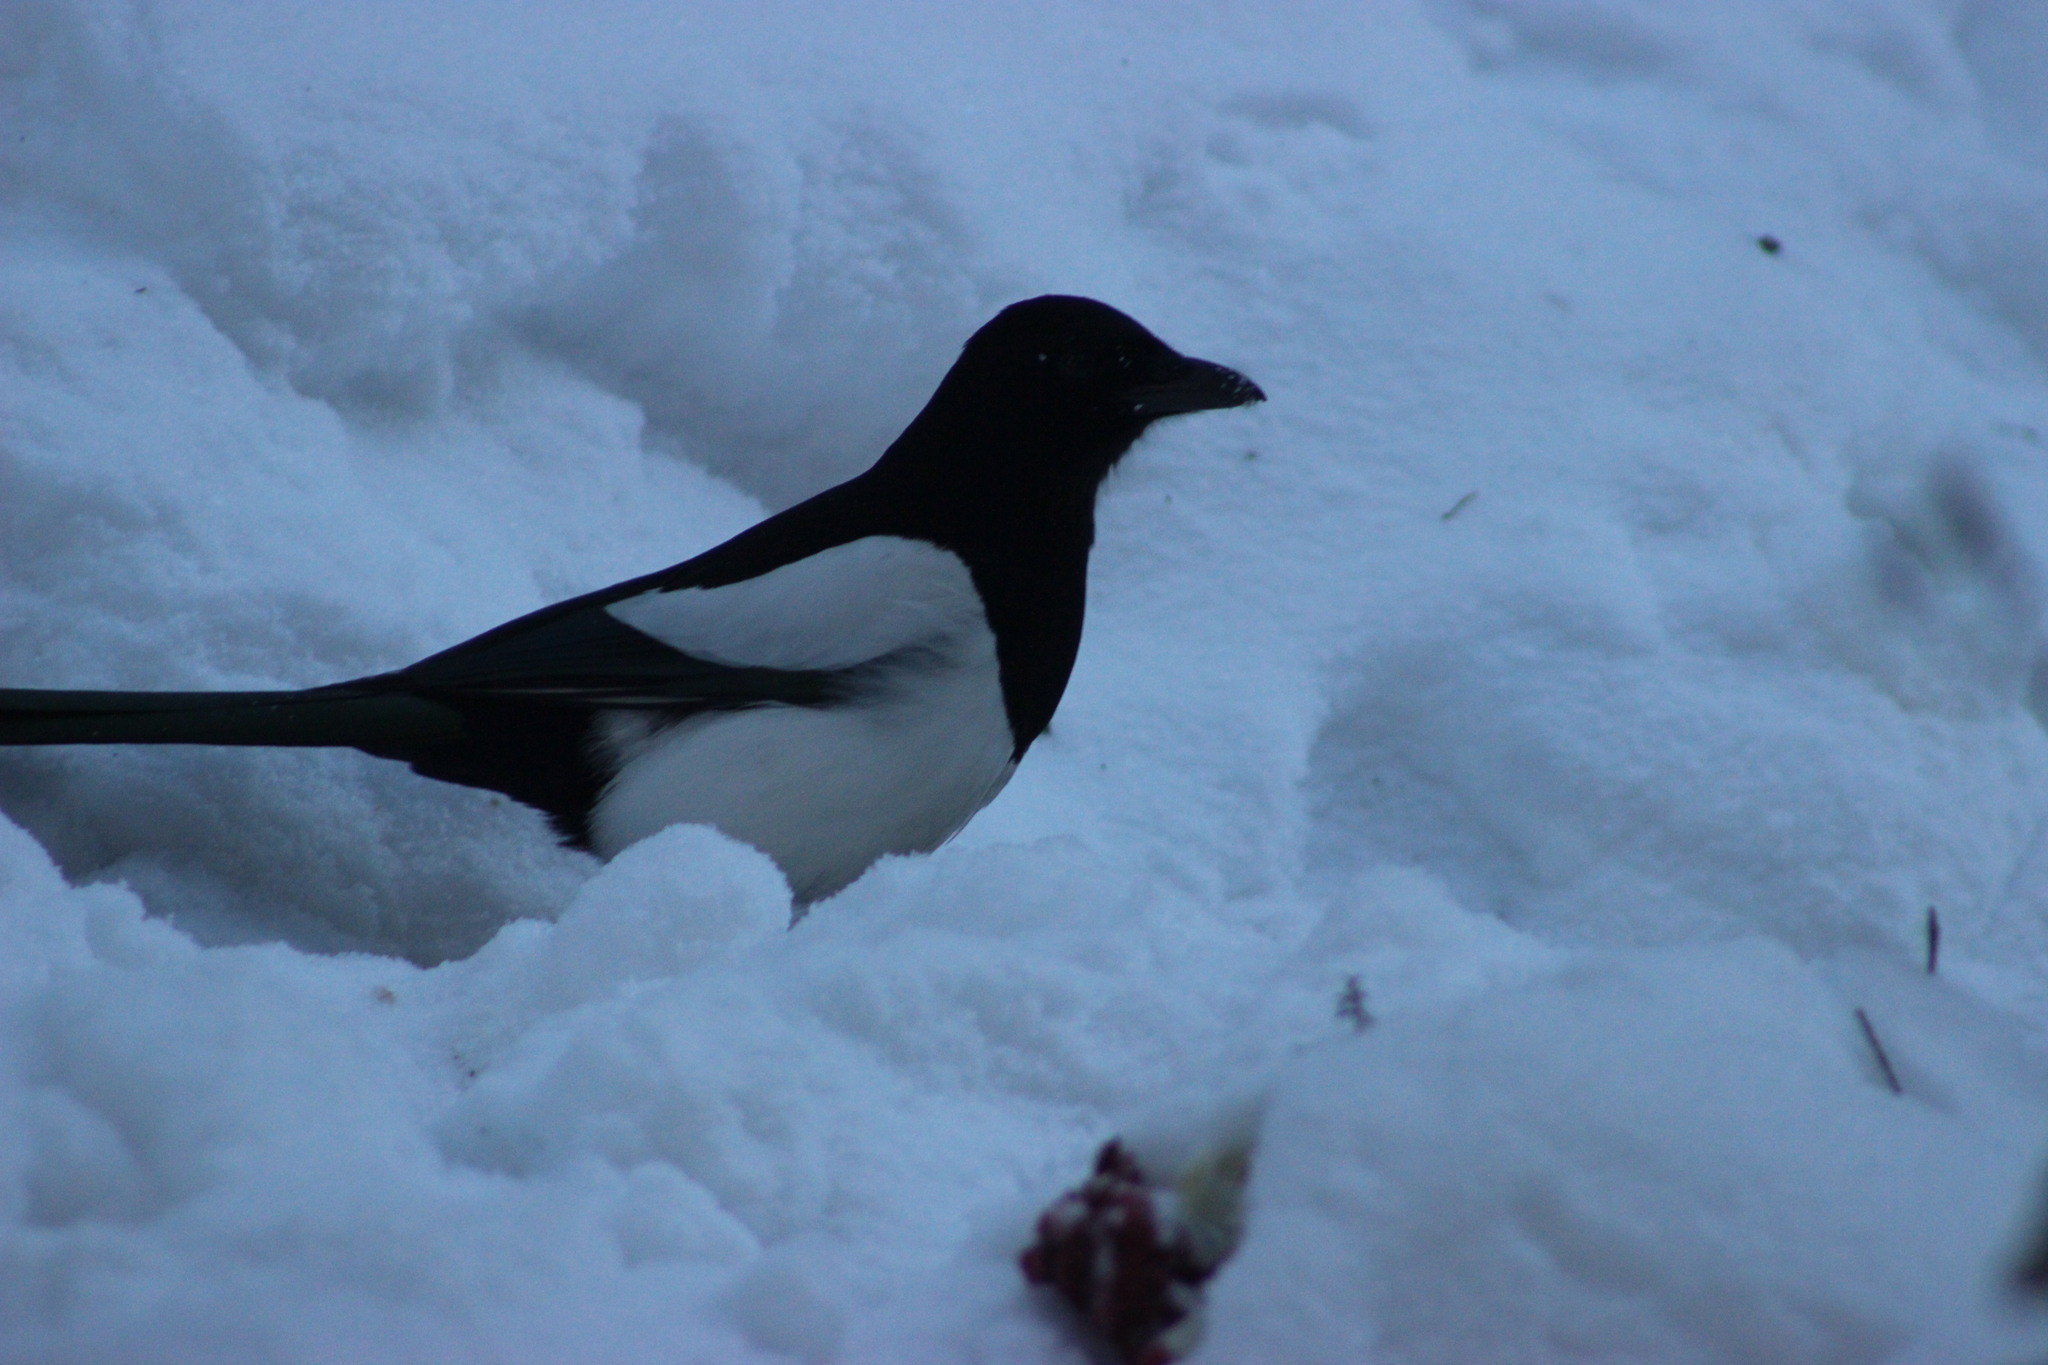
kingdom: Animalia
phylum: Chordata
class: Aves
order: Passeriformes
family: Corvidae
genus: Pica
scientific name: Pica pica
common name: Eurasian magpie
